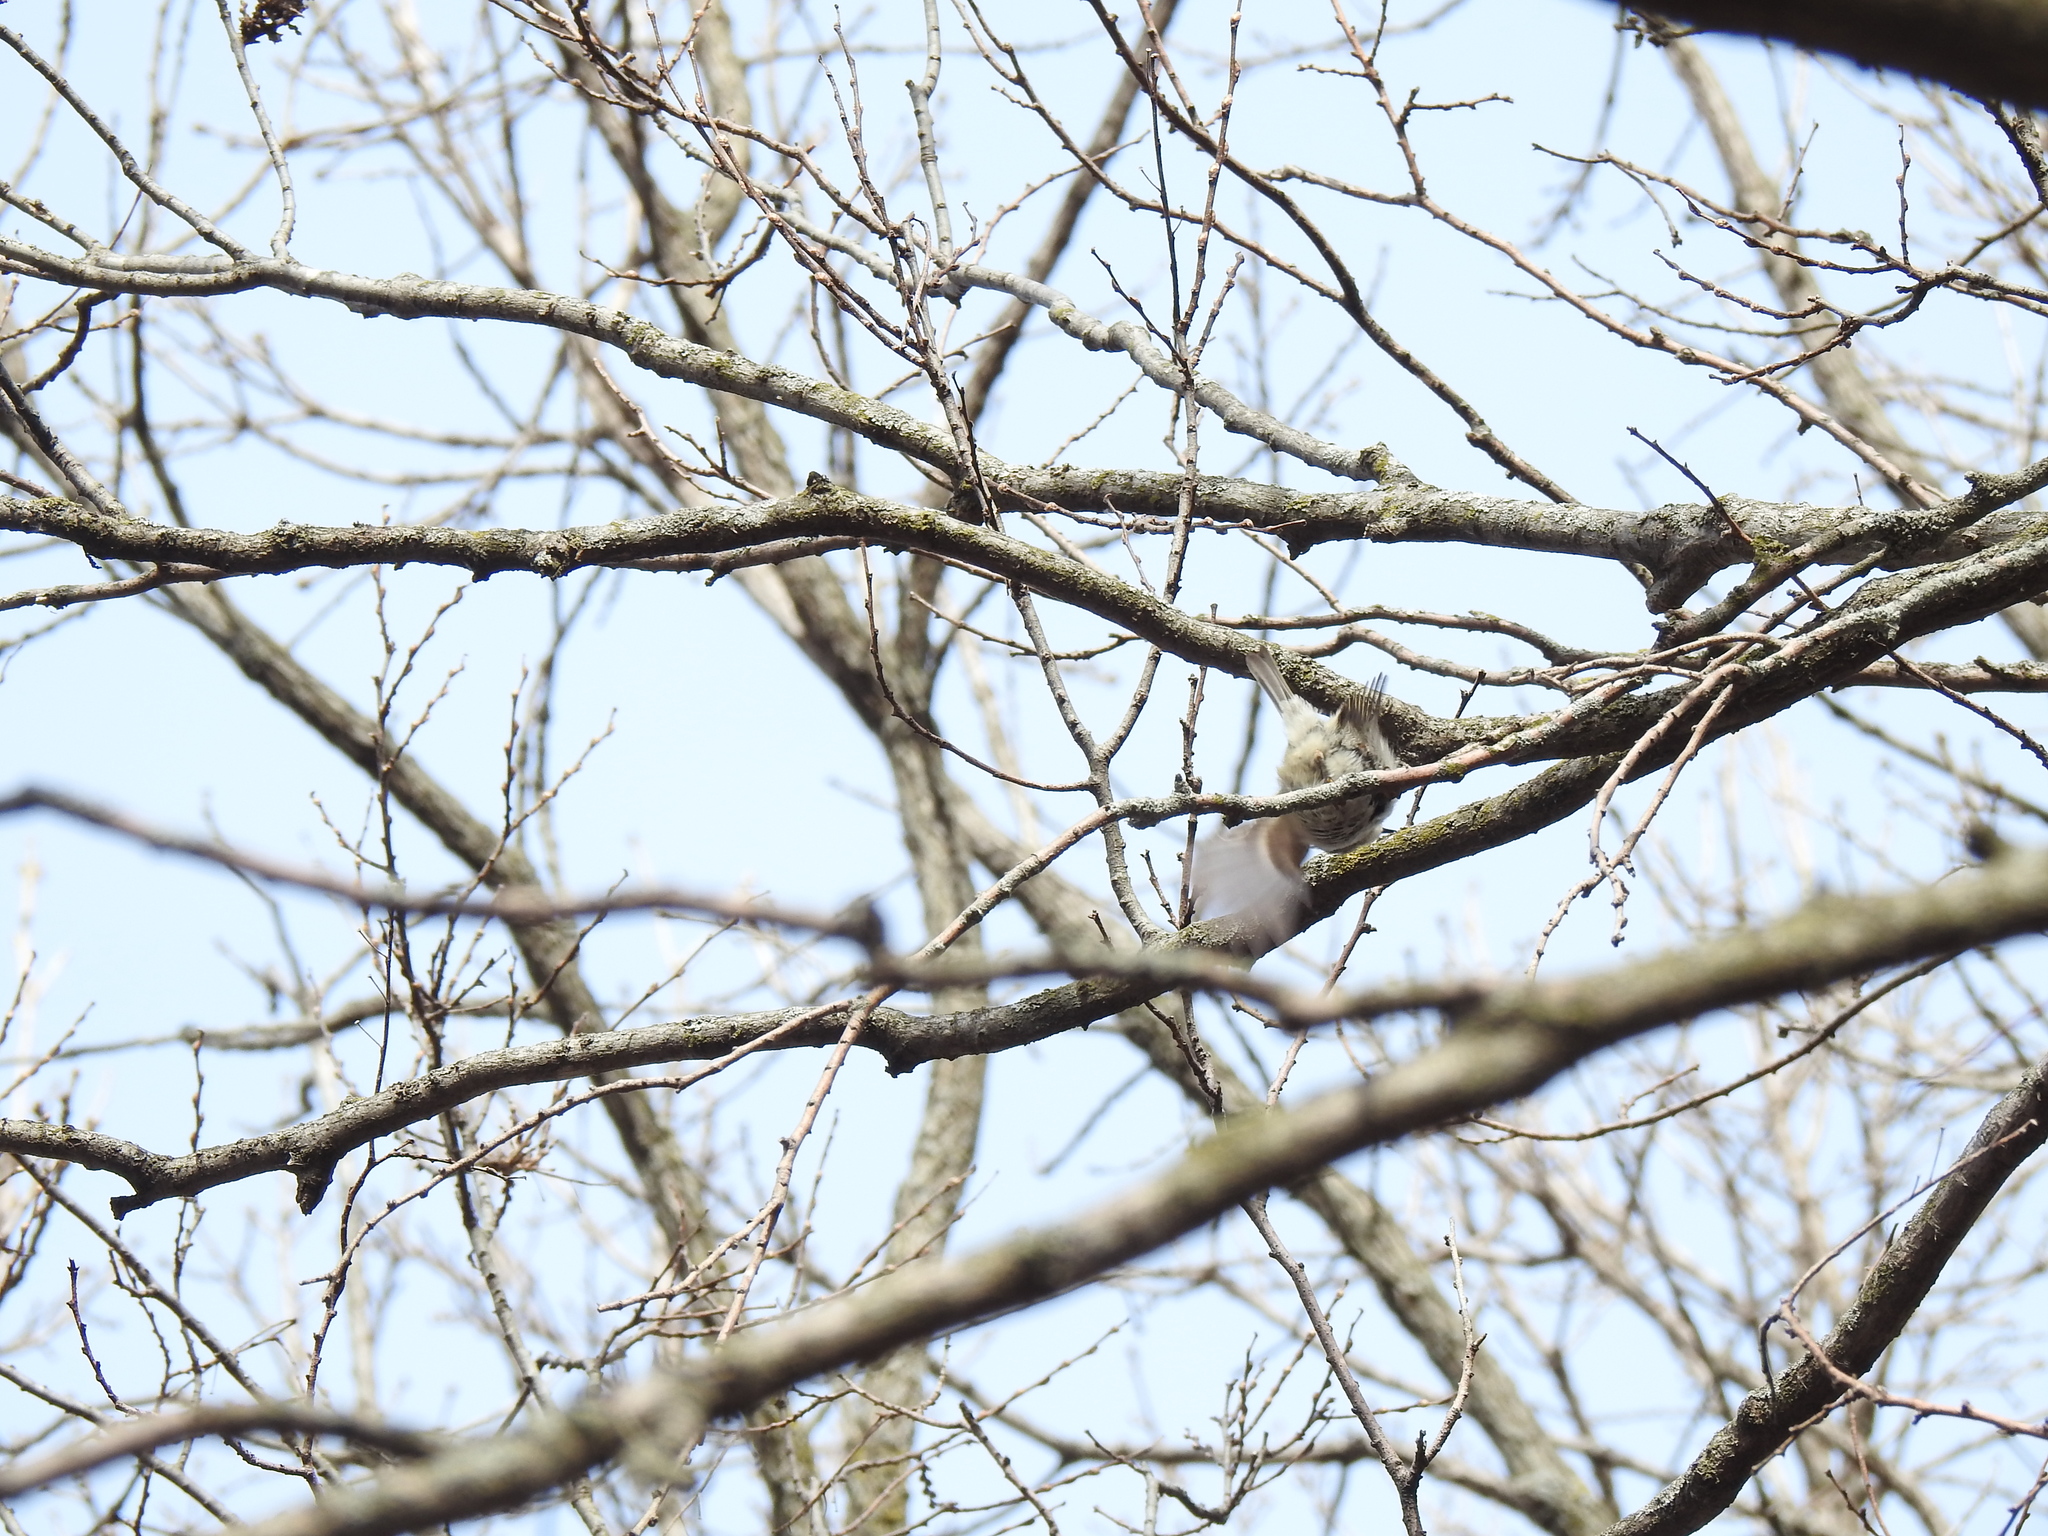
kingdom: Animalia
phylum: Chordata
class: Aves
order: Passeriformes
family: Regulidae
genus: Regulus
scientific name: Regulus satrapa
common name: Golden-crowned kinglet
